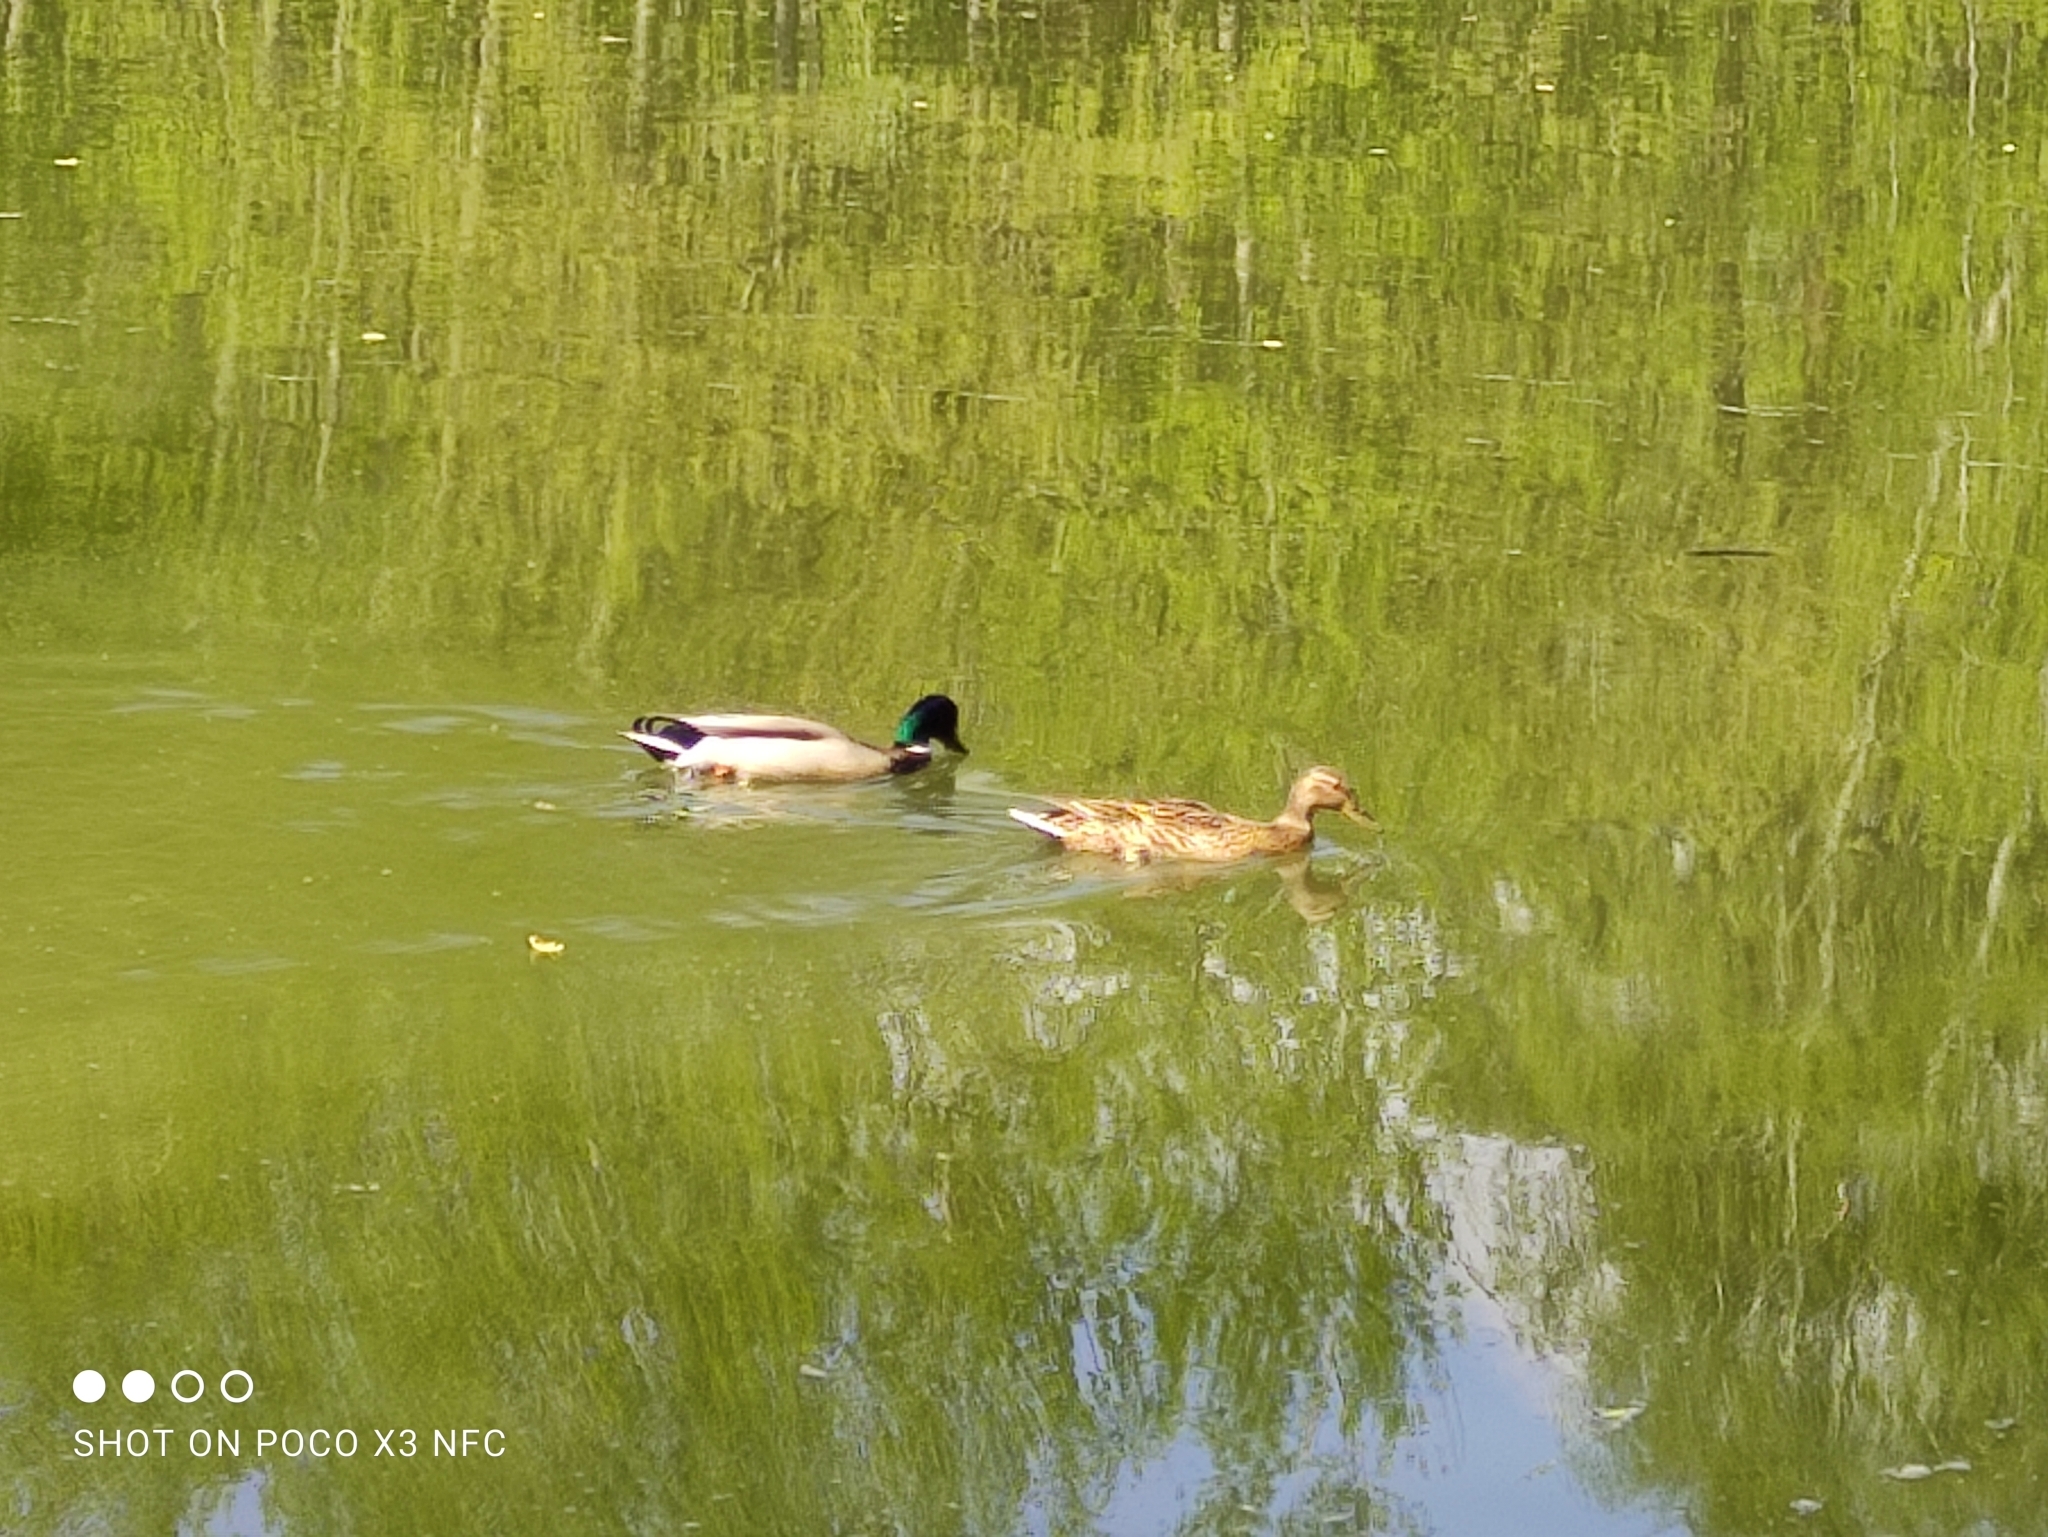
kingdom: Animalia
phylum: Chordata
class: Aves
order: Anseriformes
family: Anatidae
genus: Anas
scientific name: Anas platyrhynchos
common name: Mallard
